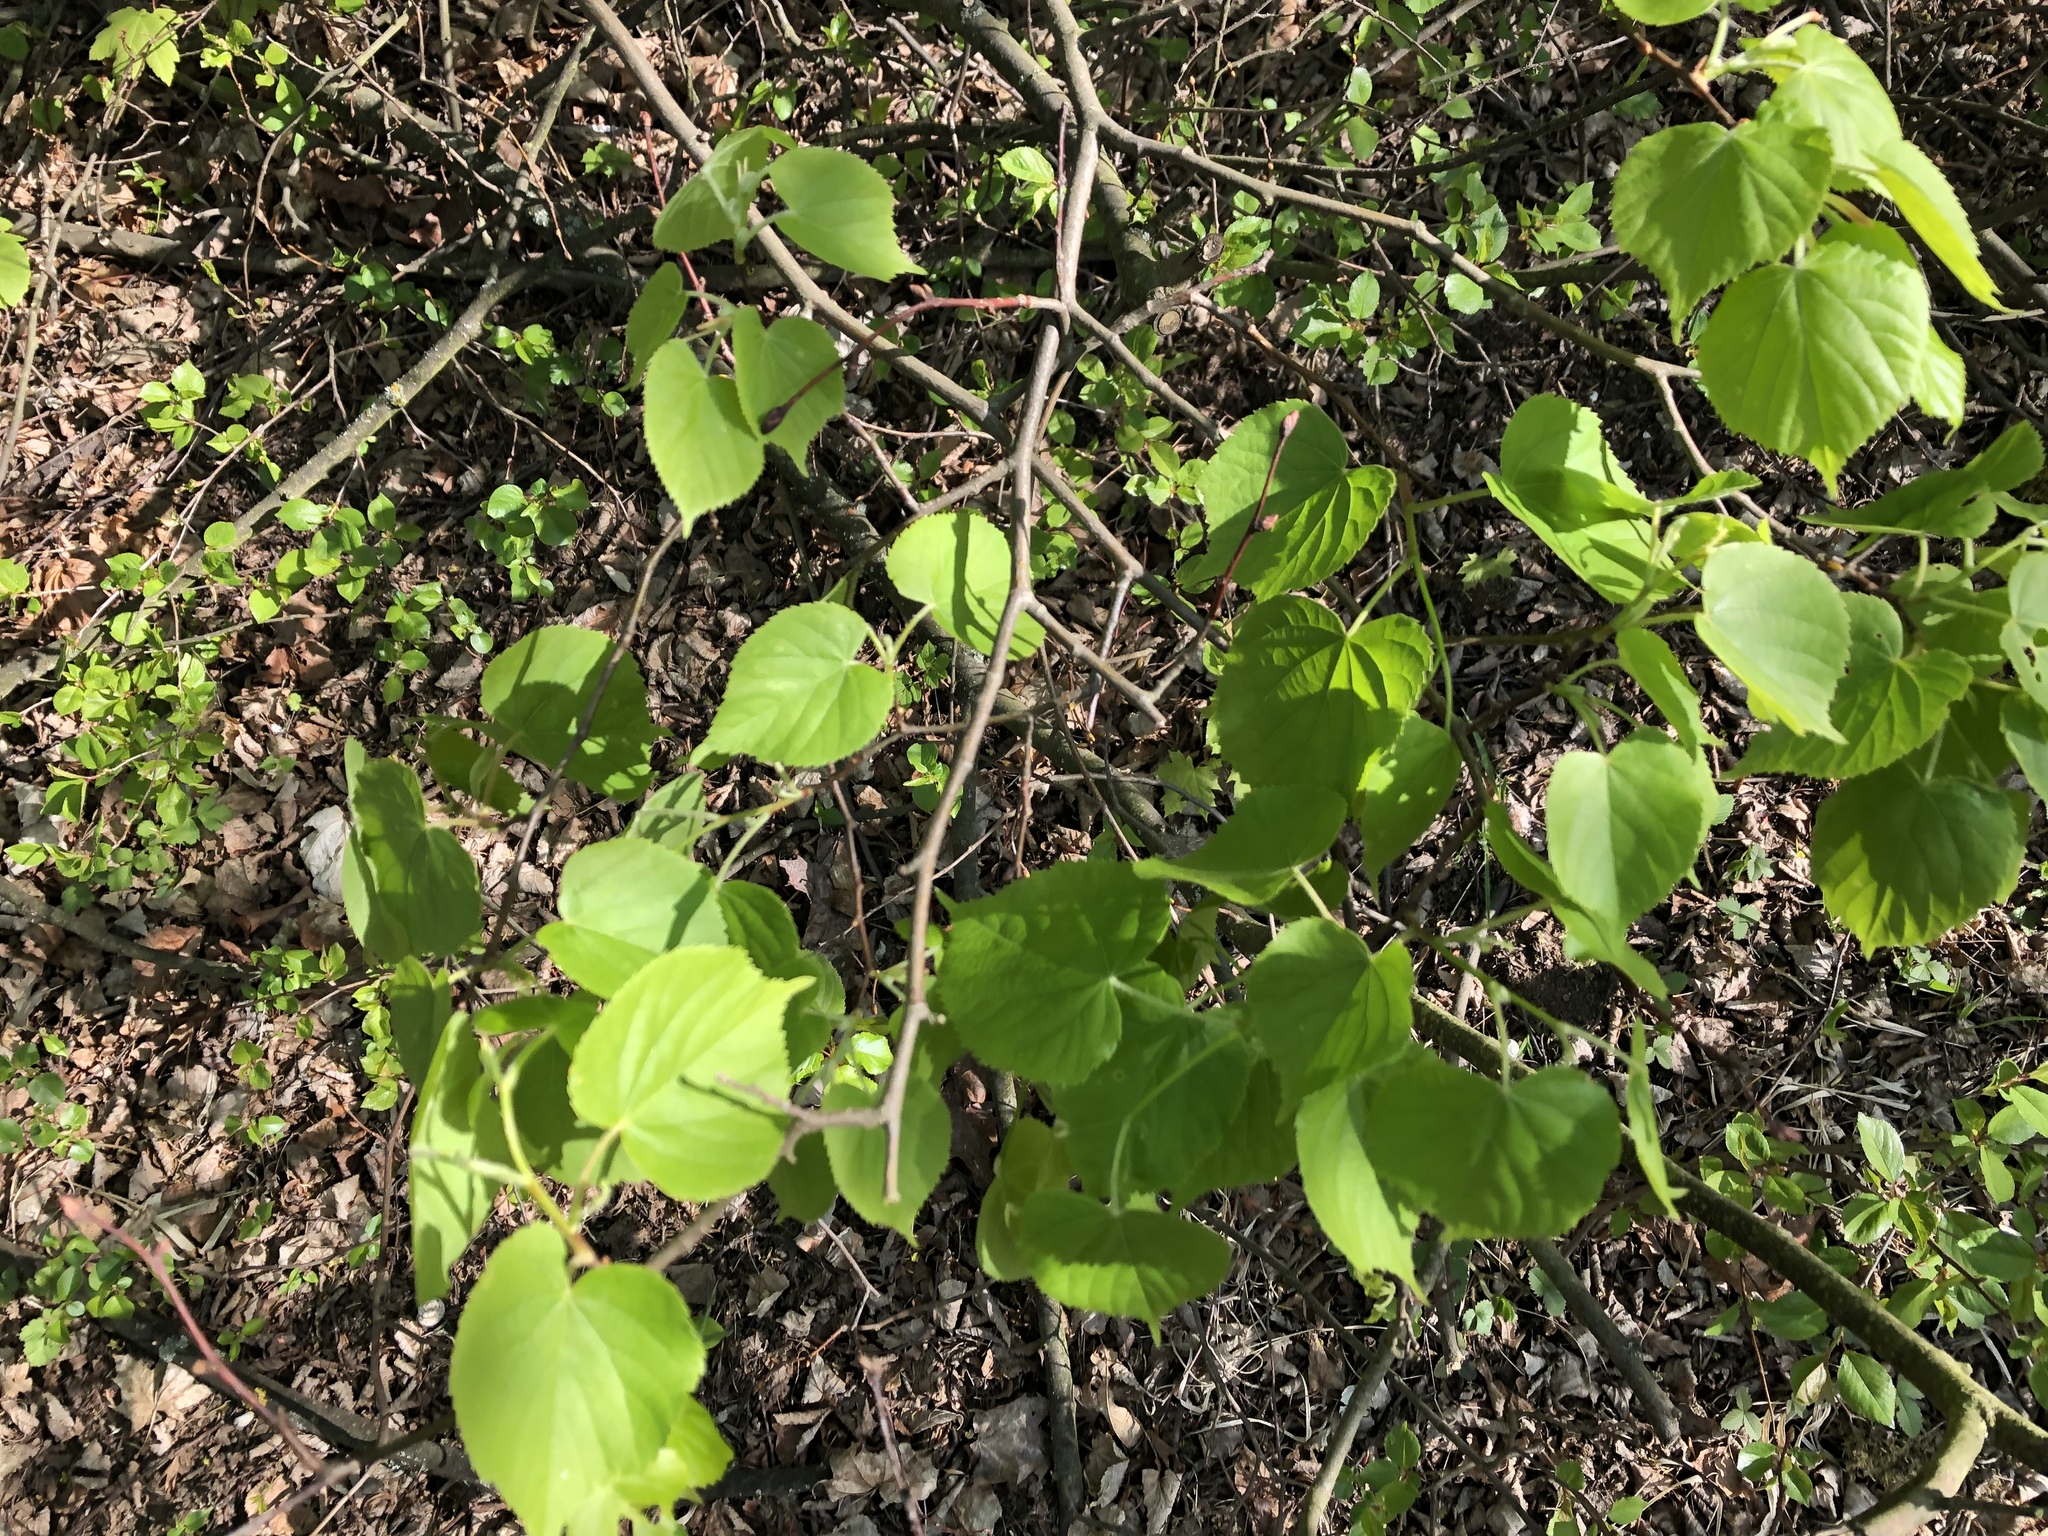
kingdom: Plantae
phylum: Tracheophyta
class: Magnoliopsida
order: Malvales
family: Malvaceae
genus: Tilia
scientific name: Tilia cordata
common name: Small-leaved lime
